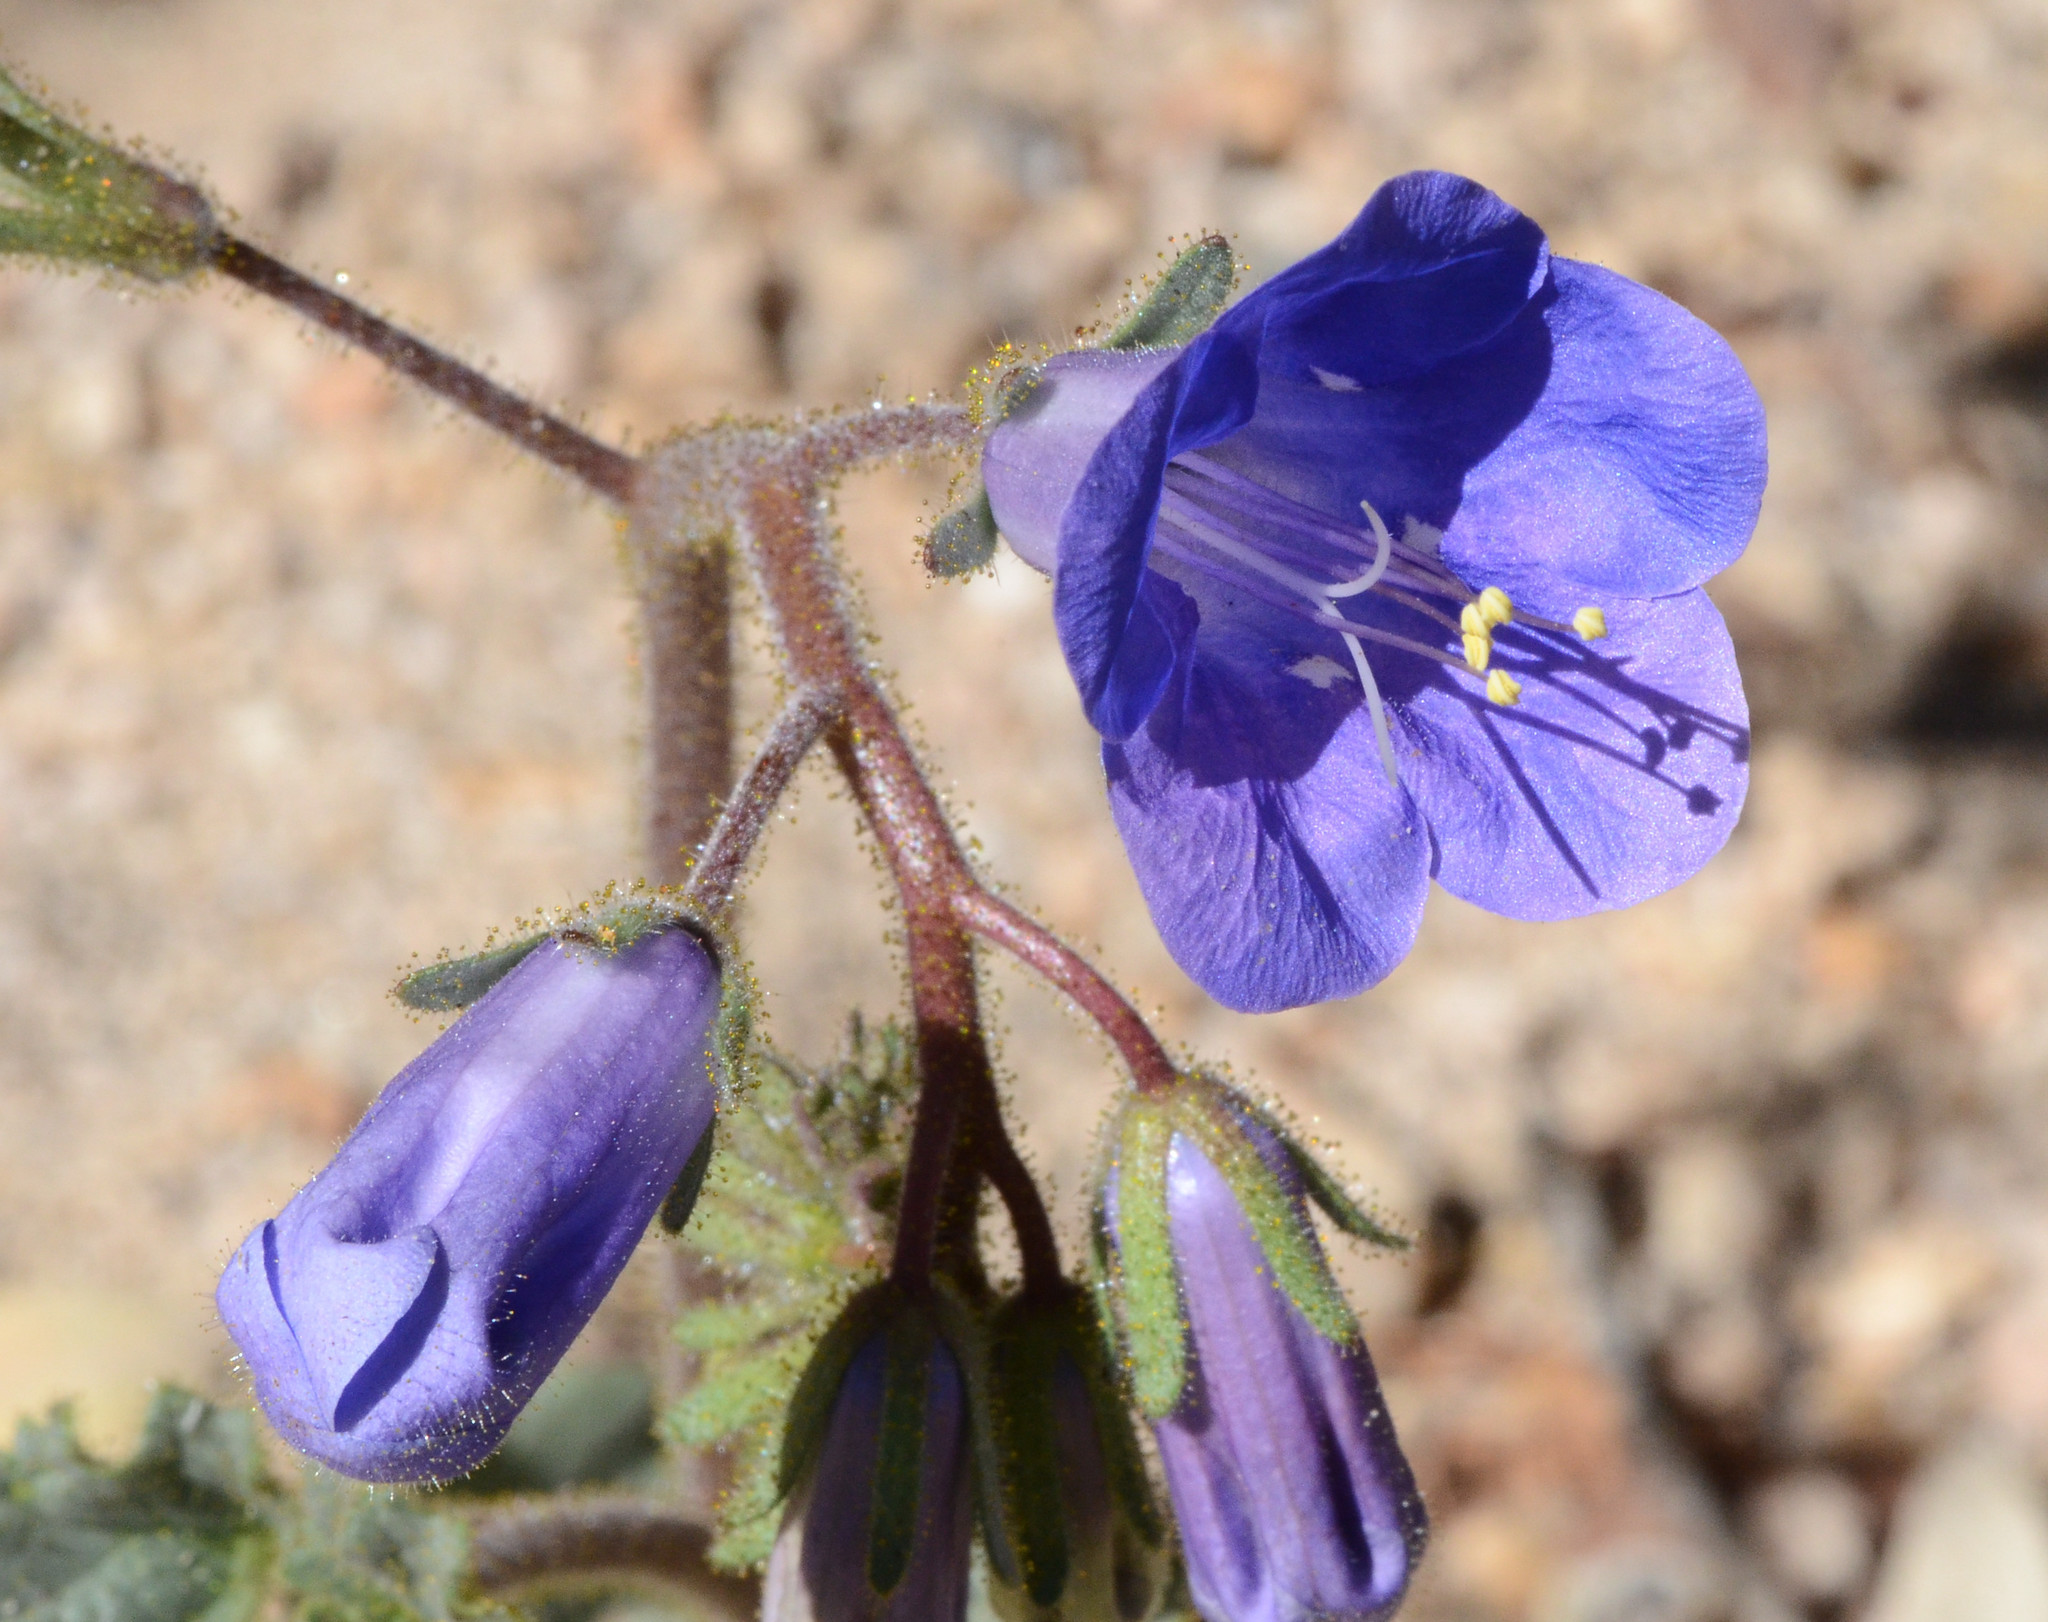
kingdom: Plantae
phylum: Tracheophyta
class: Magnoliopsida
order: Boraginales
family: Hydrophyllaceae
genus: Phacelia
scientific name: Phacelia campanularia
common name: California bluebell
